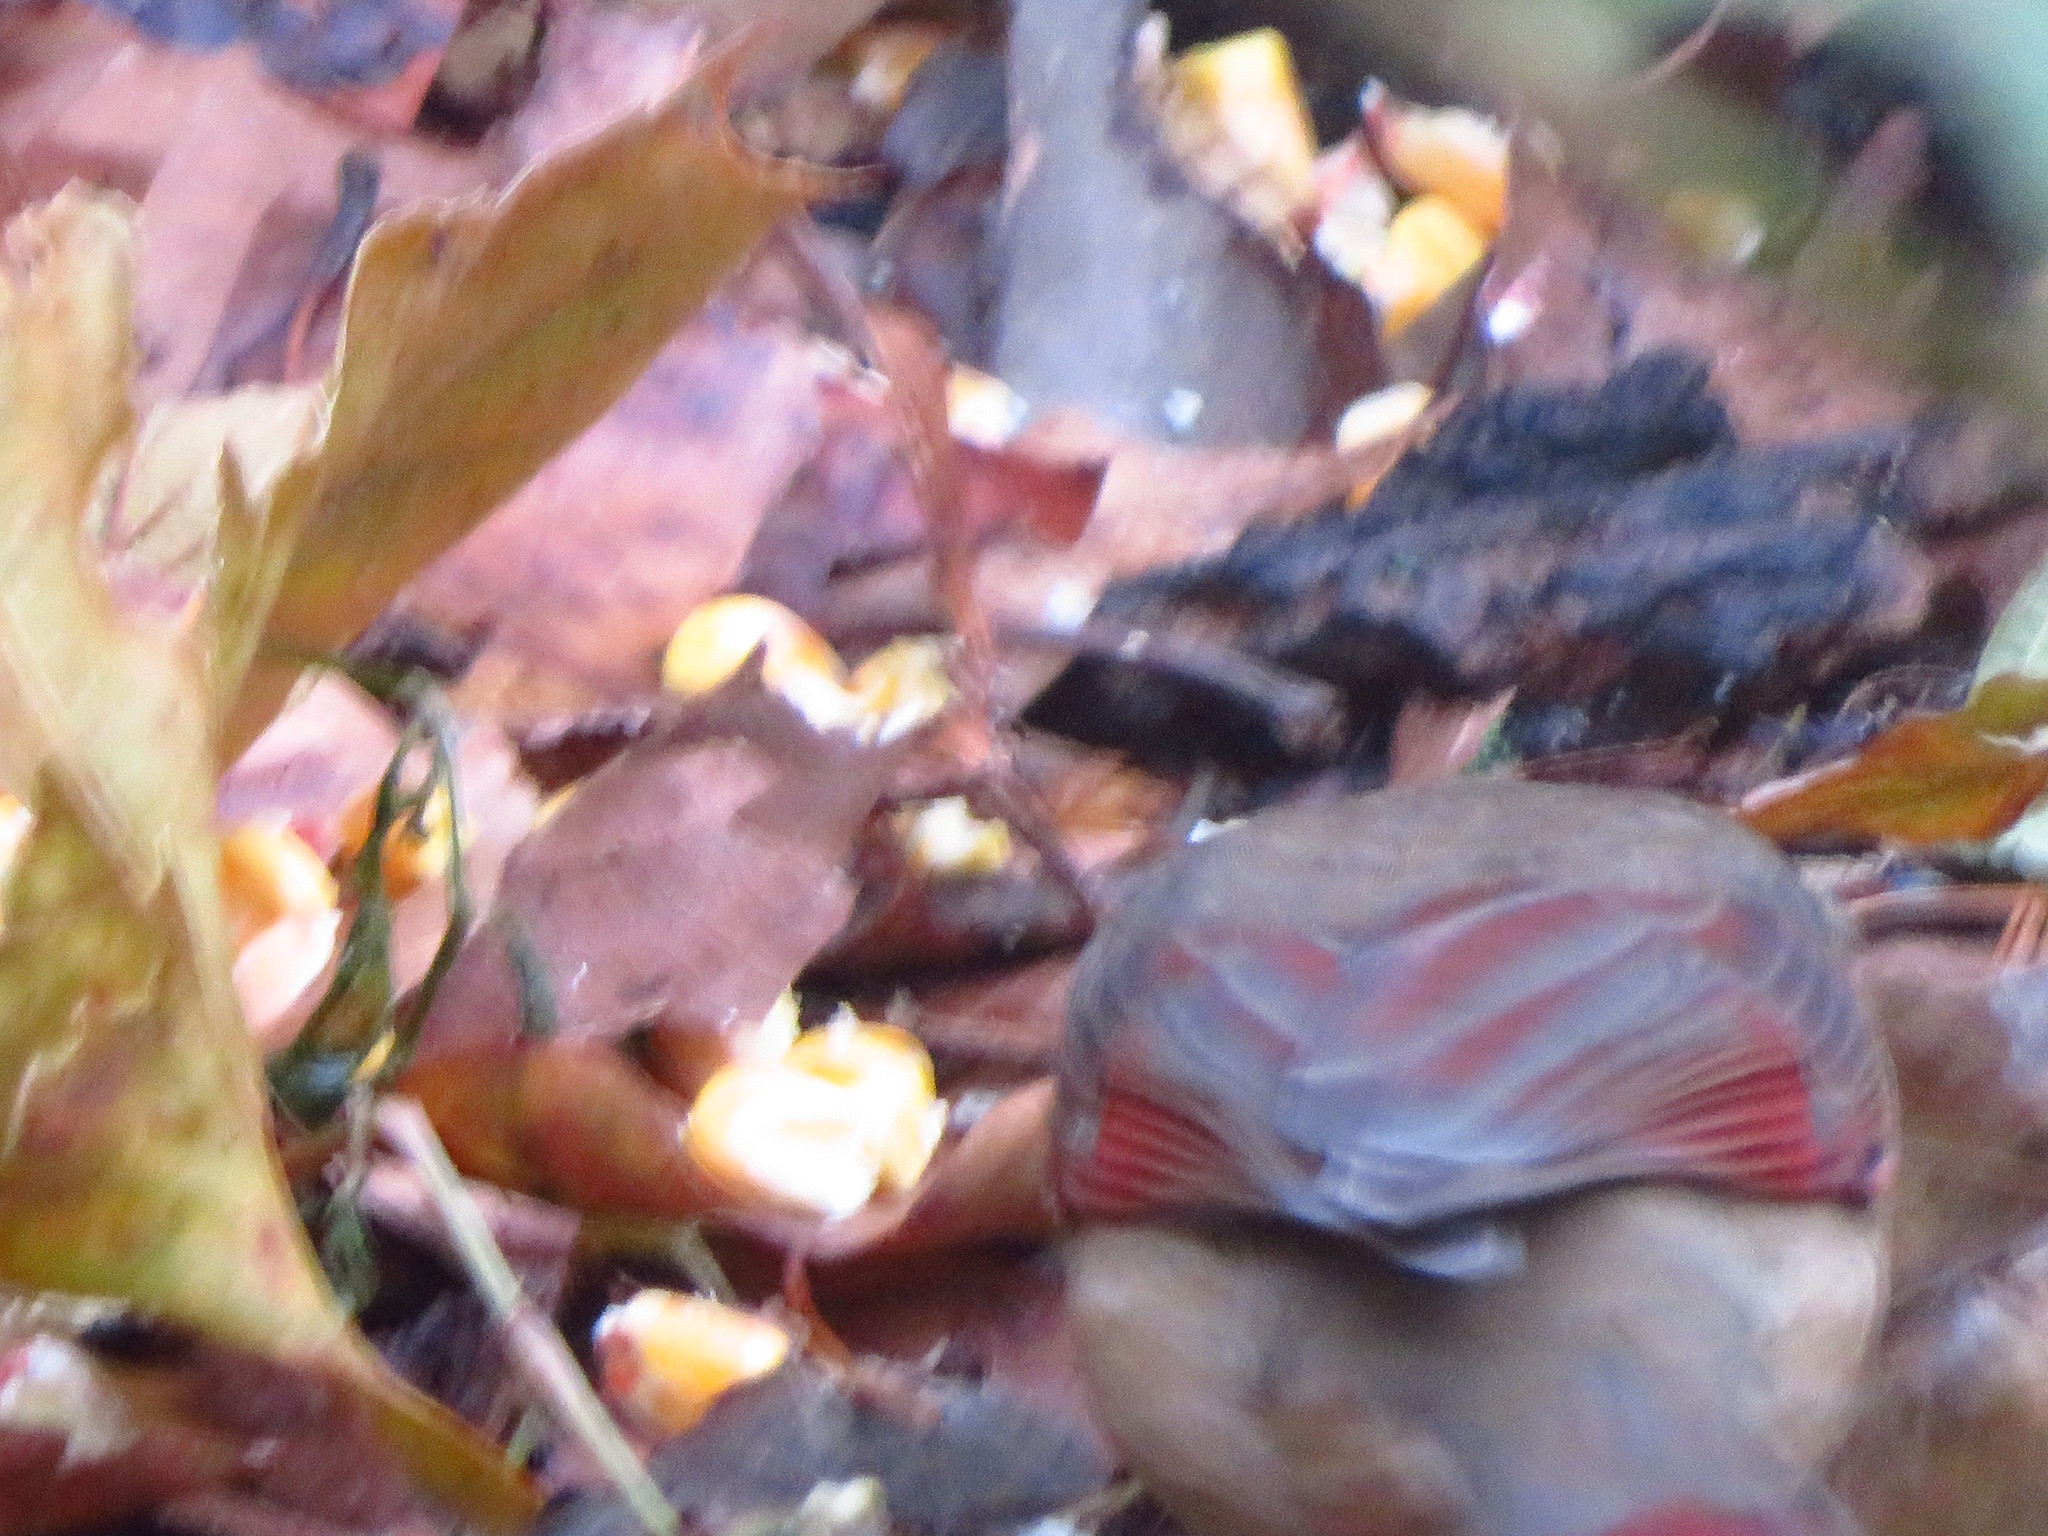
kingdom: Animalia
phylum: Chordata
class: Aves
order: Passeriformes
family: Cardinalidae
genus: Cardinalis
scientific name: Cardinalis cardinalis
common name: Northern cardinal
